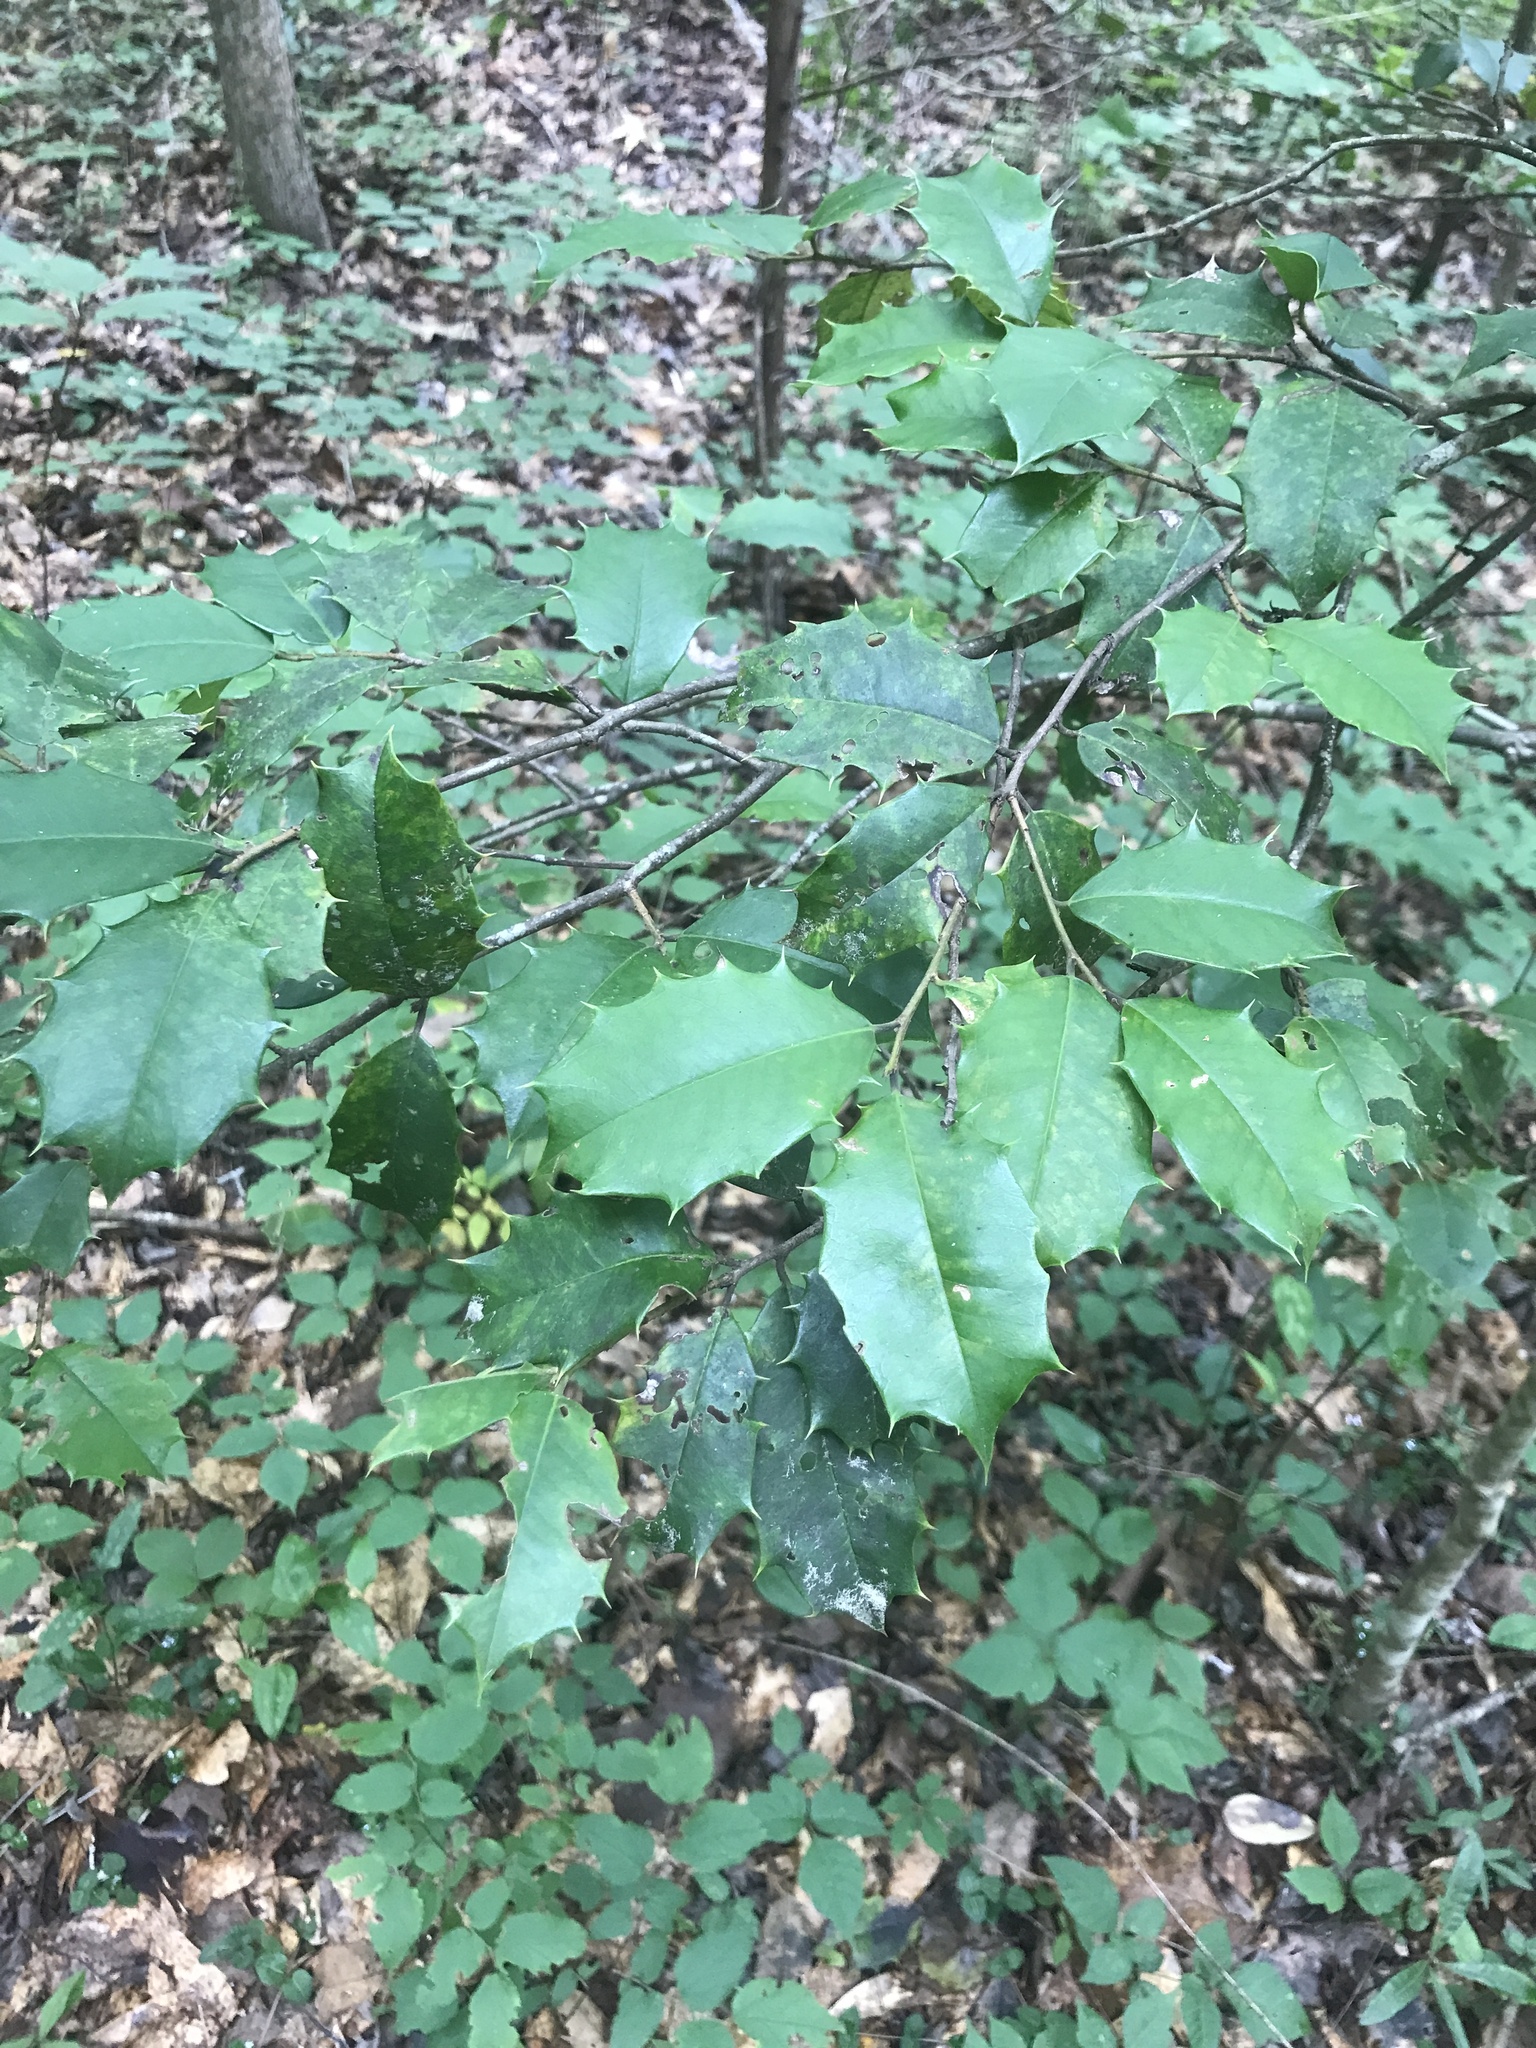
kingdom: Plantae
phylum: Tracheophyta
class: Magnoliopsida
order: Aquifoliales
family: Aquifoliaceae
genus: Ilex
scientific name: Ilex opaca
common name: American holly
